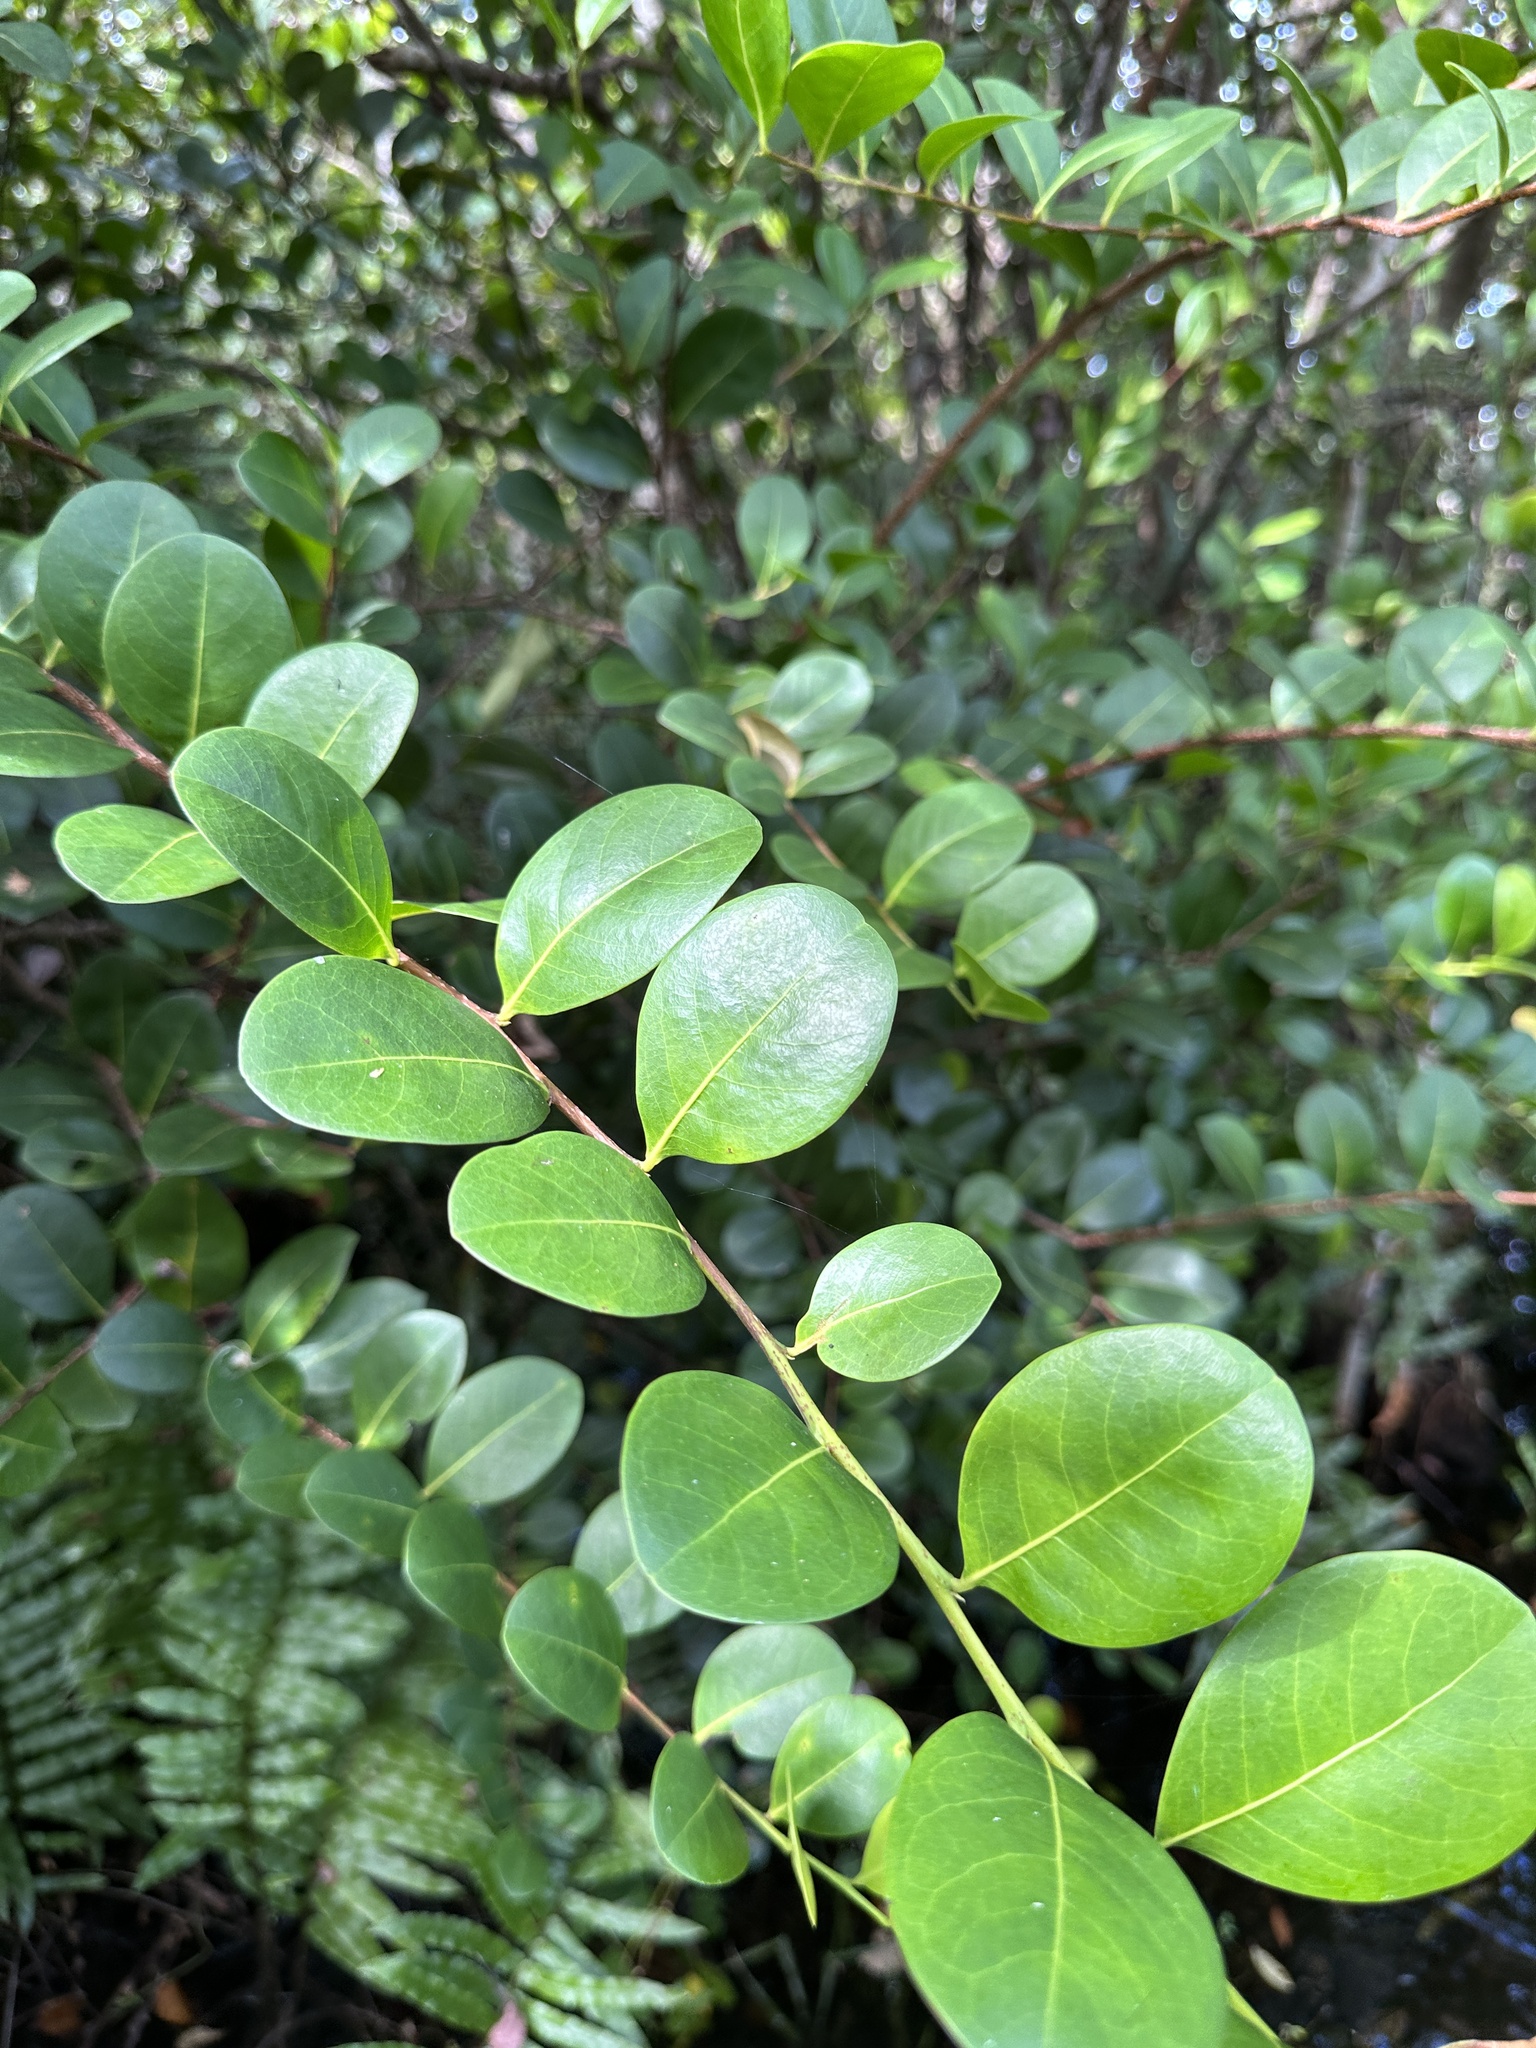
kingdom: Plantae
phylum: Tracheophyta
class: Magnoliopsida
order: Malpighiales
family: Chrysobalanaceae
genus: Chrysobalanus
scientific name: Chrysobalanus icaco
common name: Coco plum
